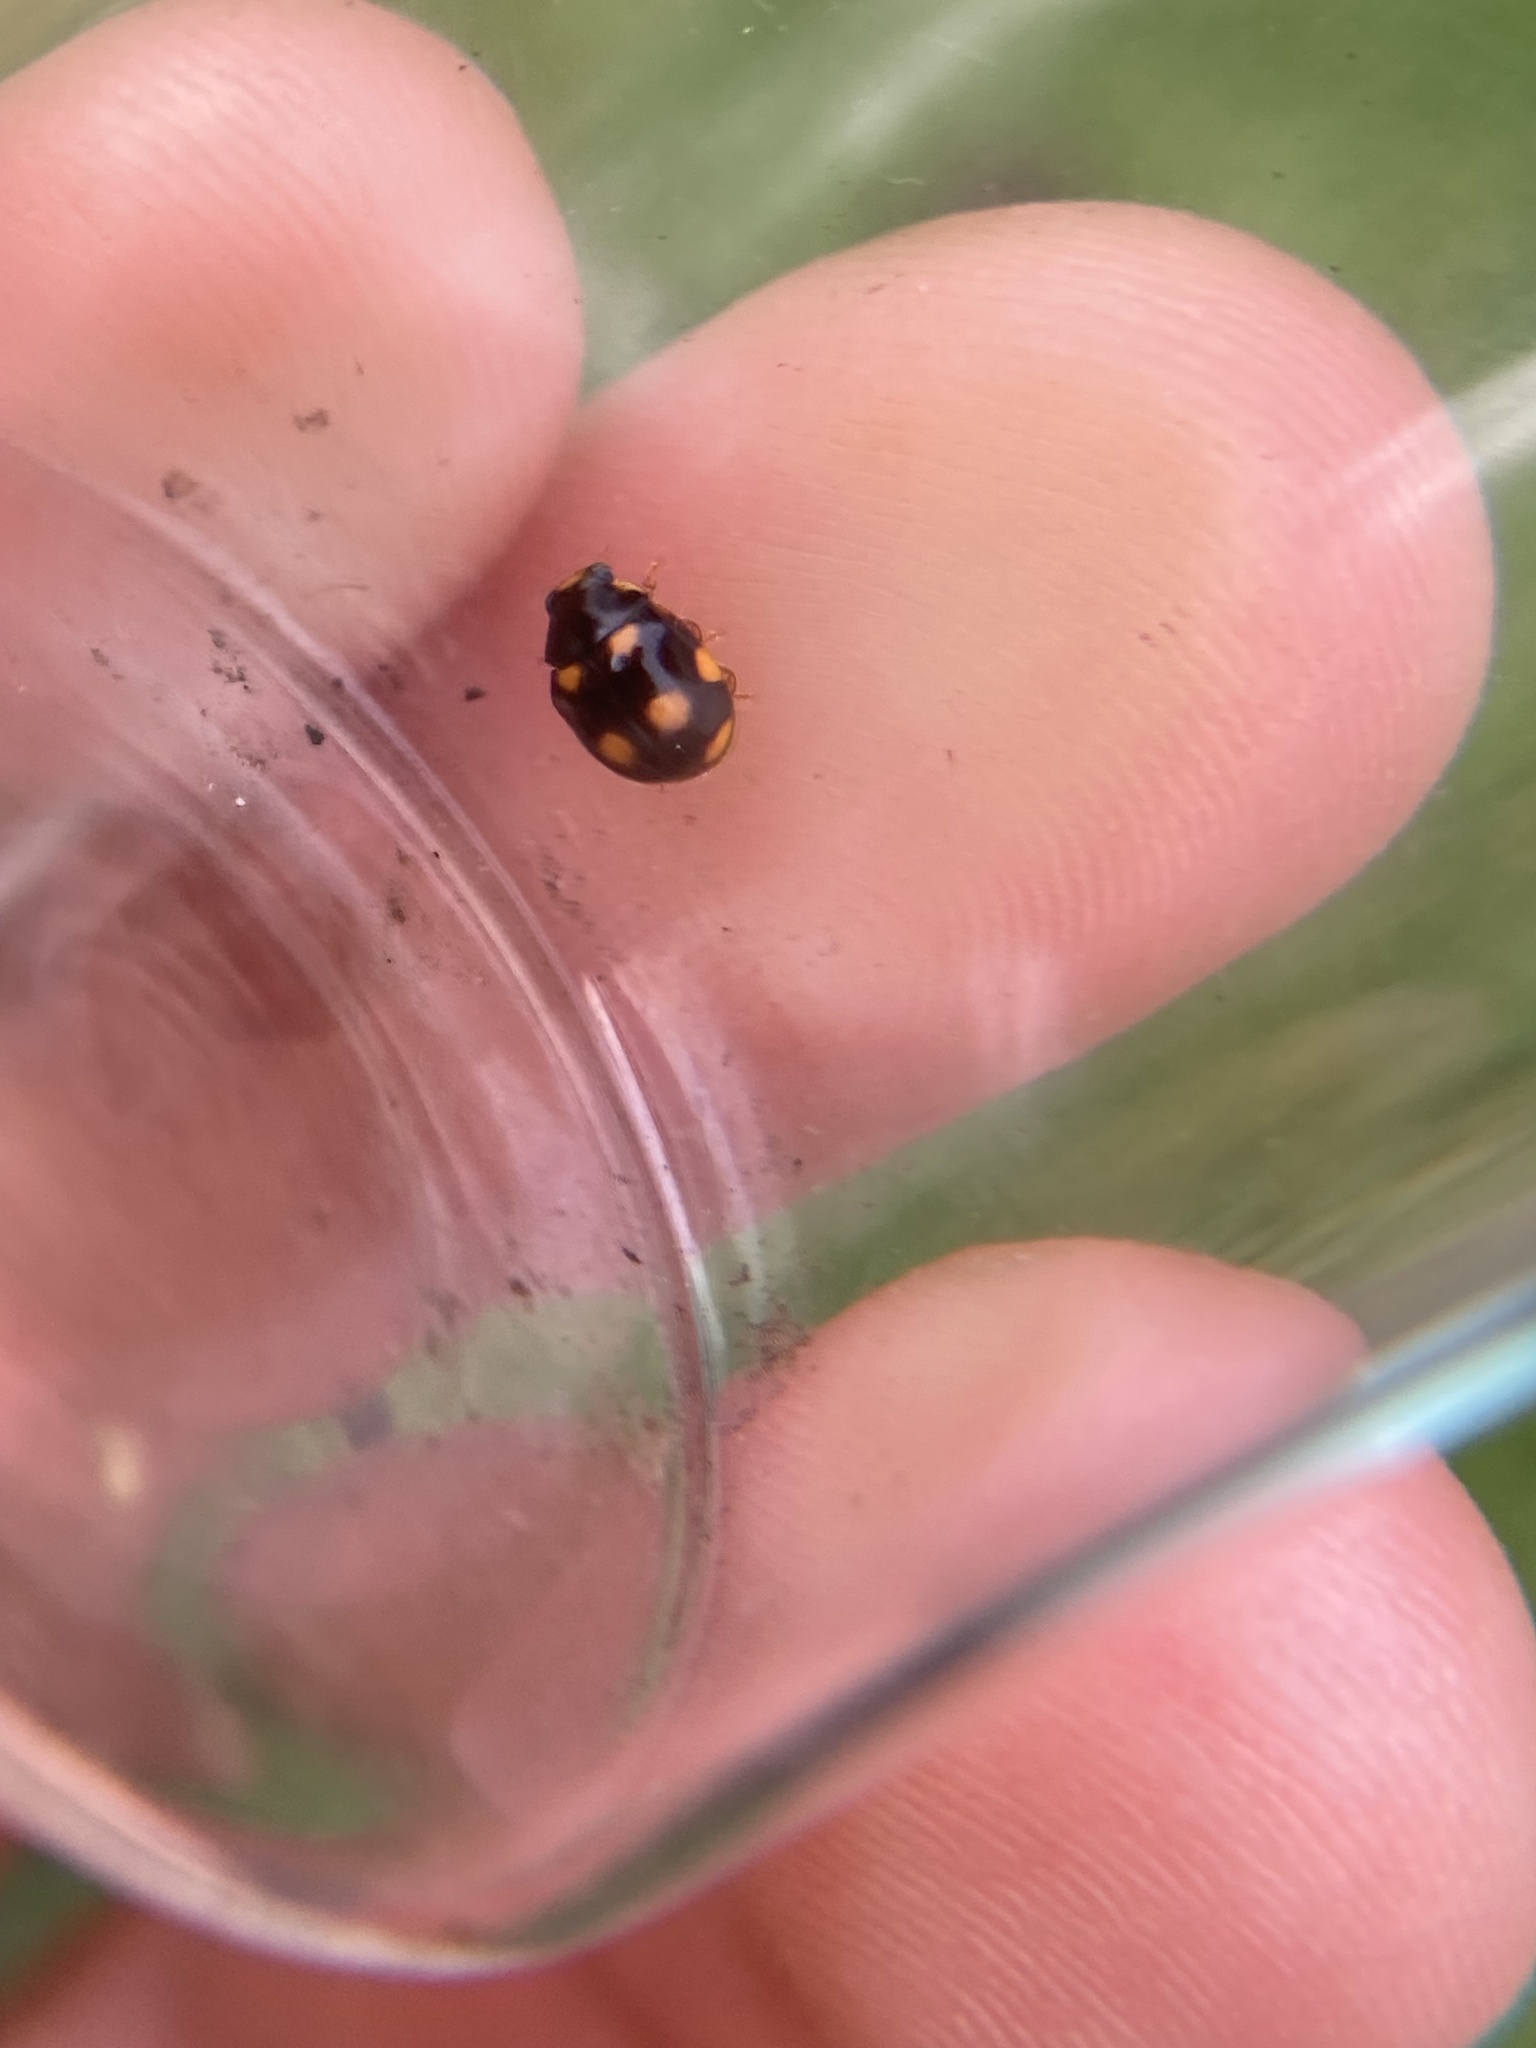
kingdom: Animalia
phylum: Arthropoda
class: Insecta
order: Coleoptera
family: Coccinellidae
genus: Brachiacantha
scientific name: Brachiacantha ursina
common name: Ursine spurleg lady beetle
